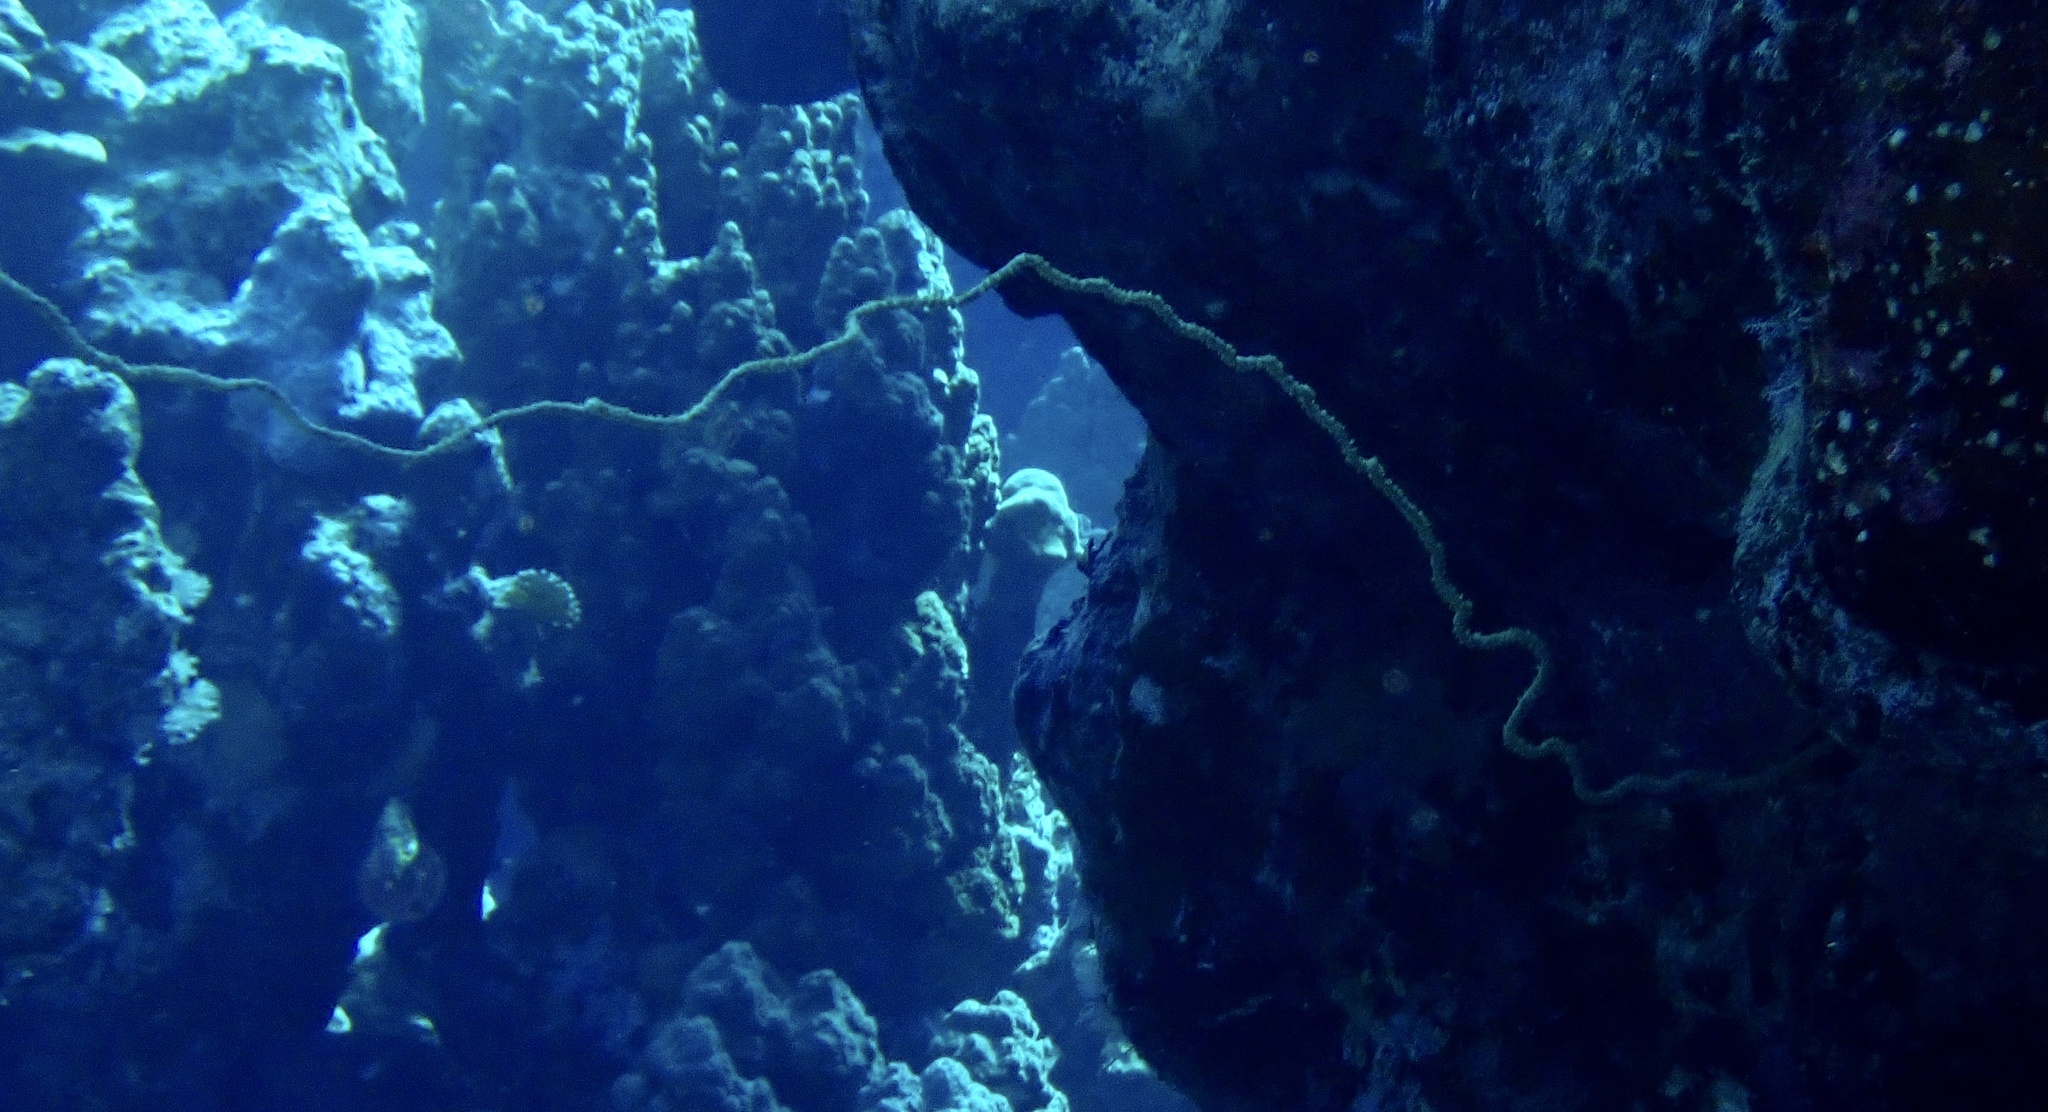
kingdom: Animalia
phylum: Cnidaria
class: Anthozoa
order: Antipatharia
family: Antipathidae
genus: Cirrhipathes
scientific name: Cirrhipathes
